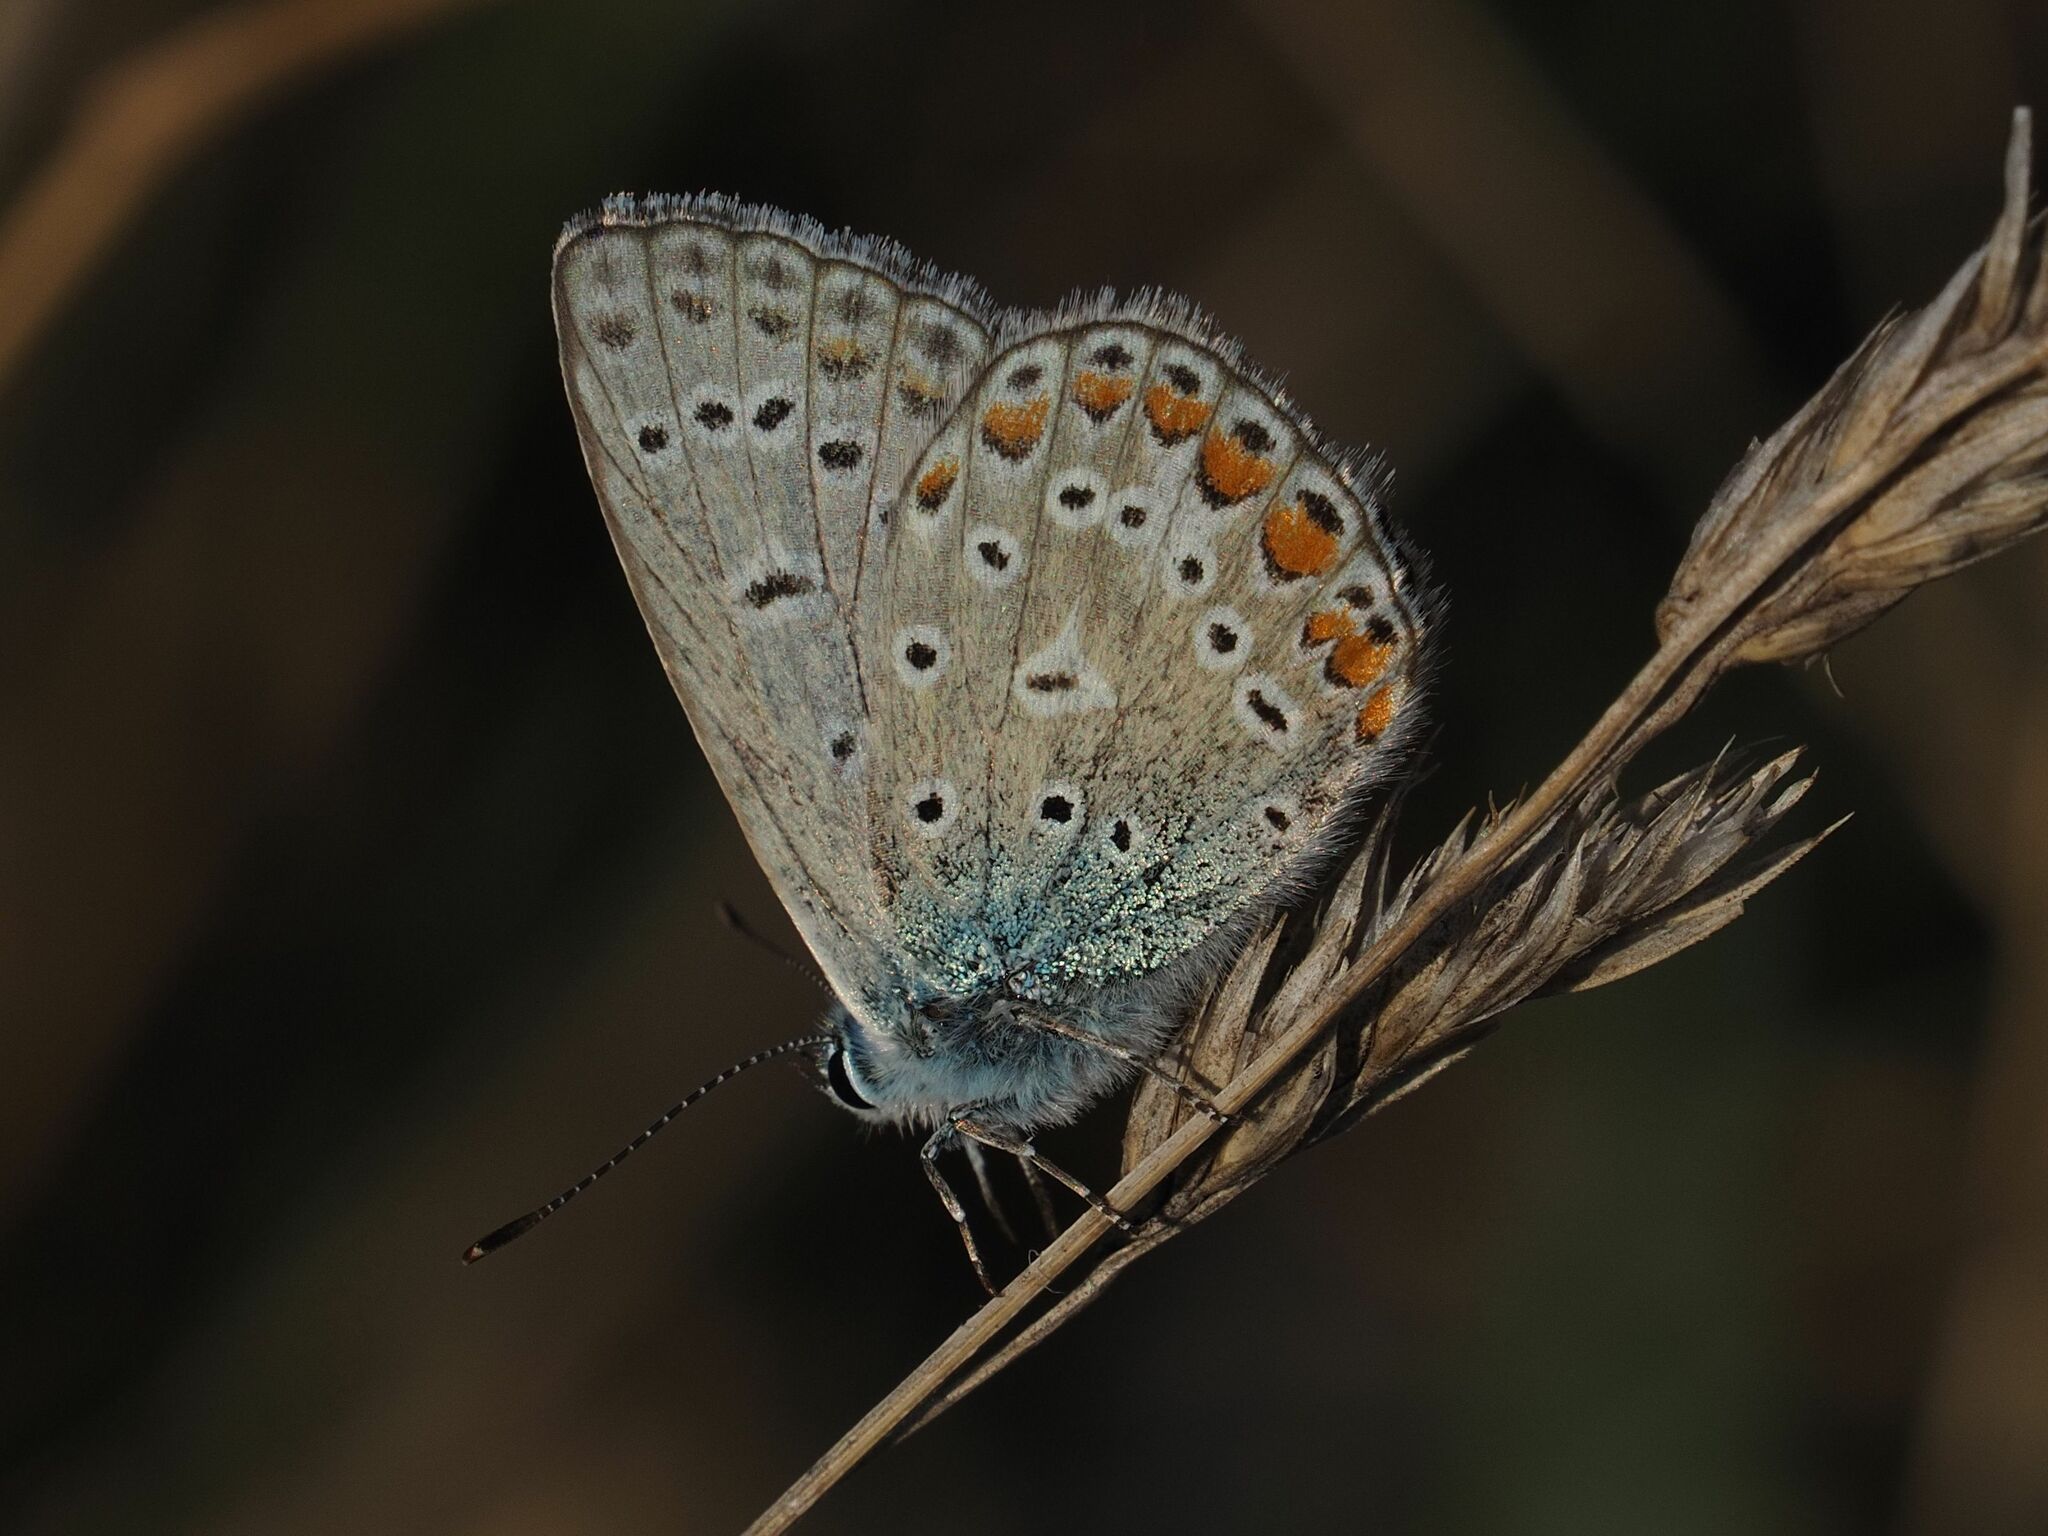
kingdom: Animalia
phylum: Arthropoda
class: Insecta
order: Lepidoptera
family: Lycaenidae
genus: Polyommatus
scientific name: Polyommatus icarus
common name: Common blue
